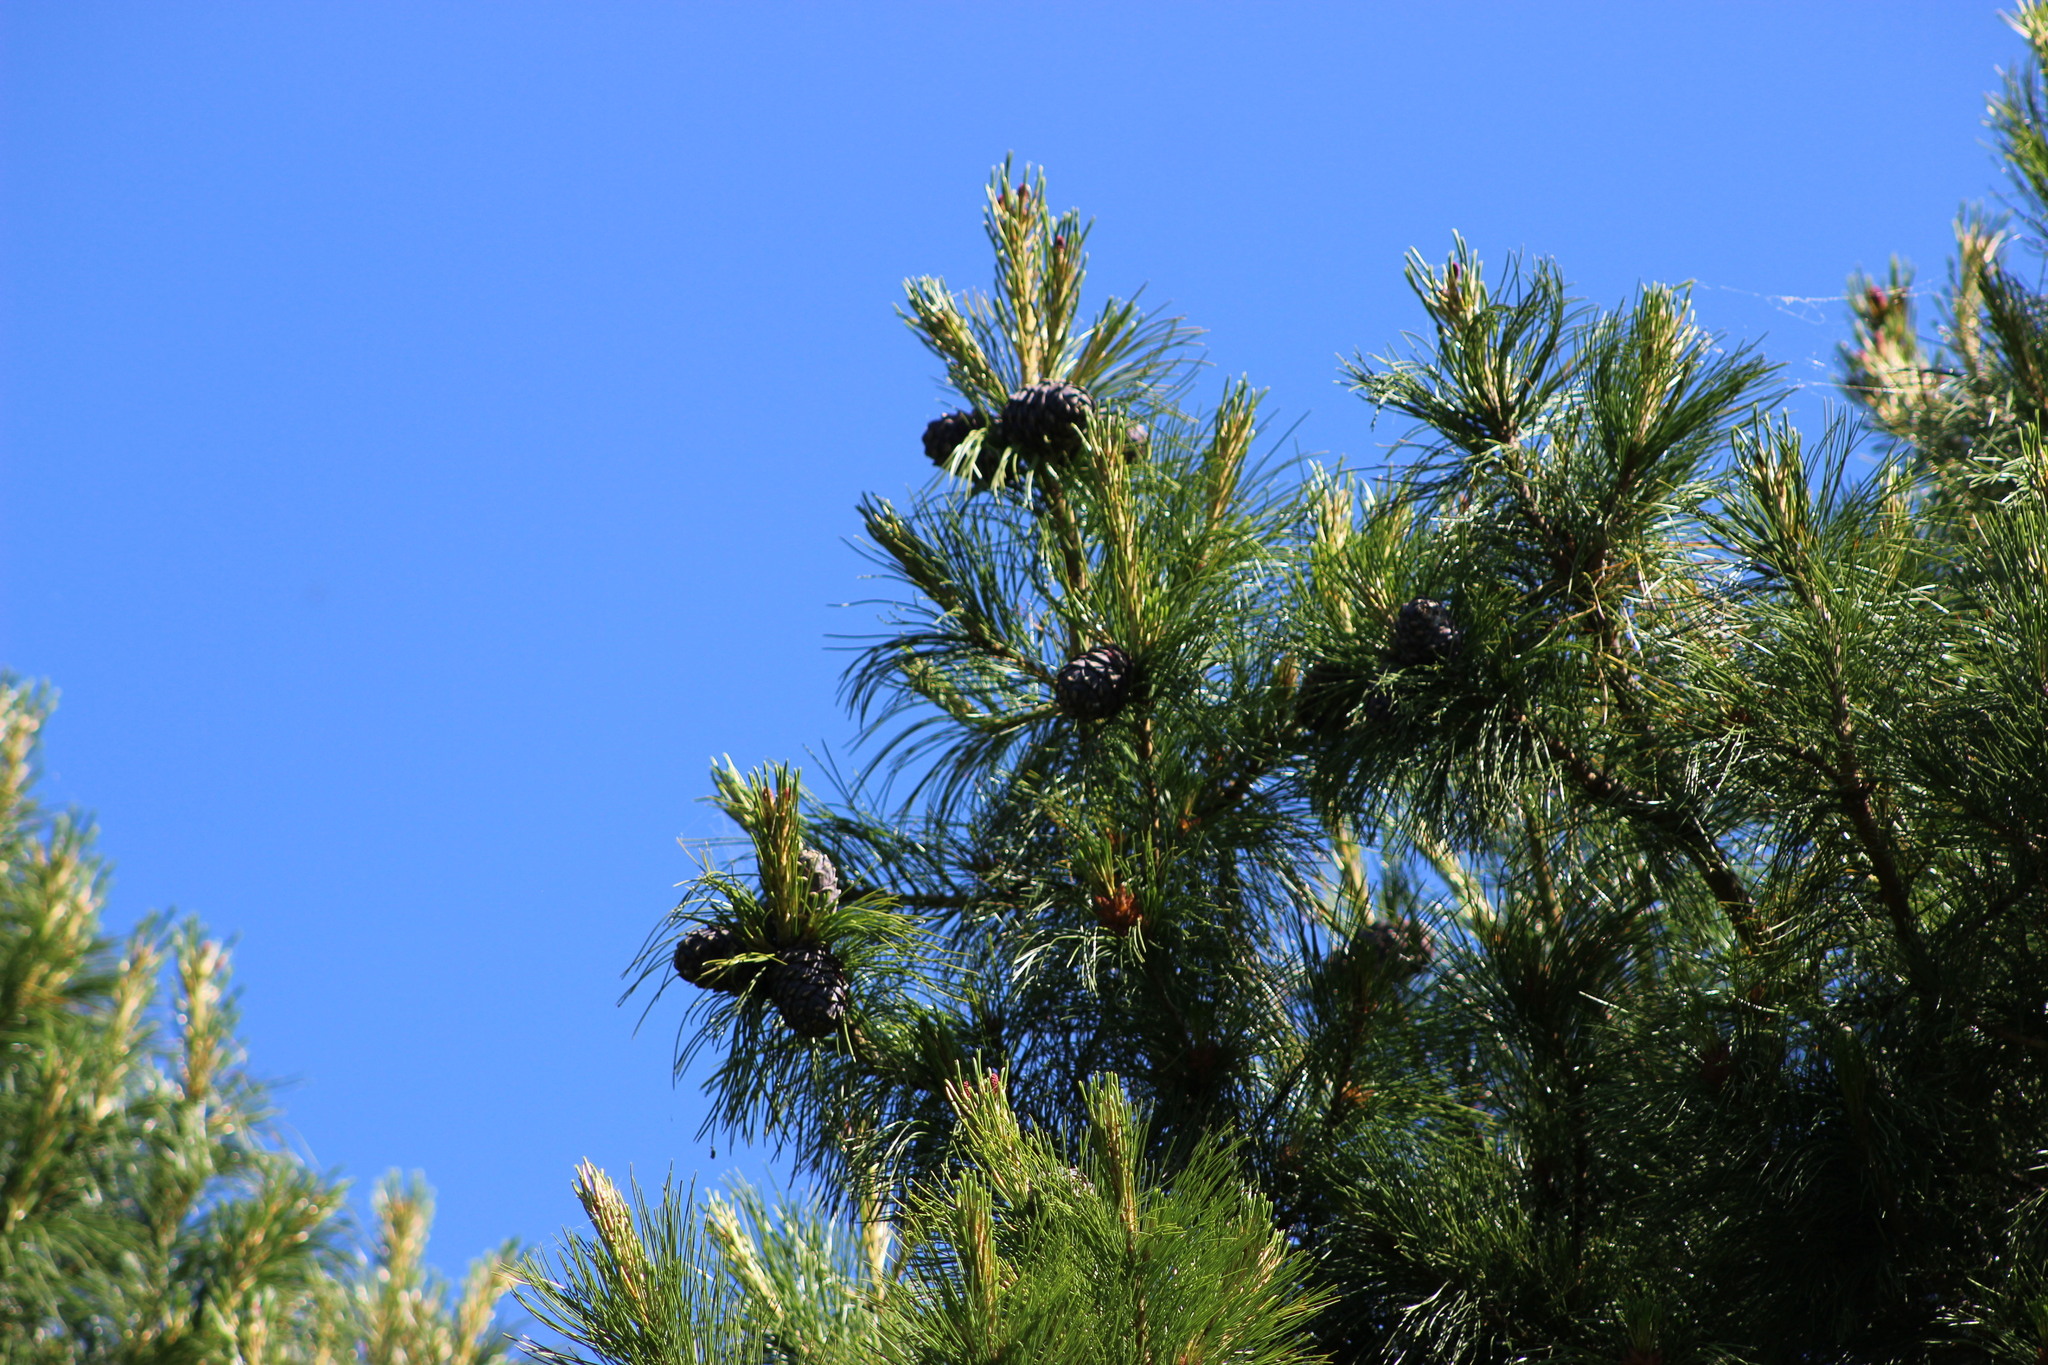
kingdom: Plantae
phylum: Tracheophyta
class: Pinopsida
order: Pinales
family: Pinaceae
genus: Pinus
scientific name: Pinus sibirica
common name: Siberian pine
